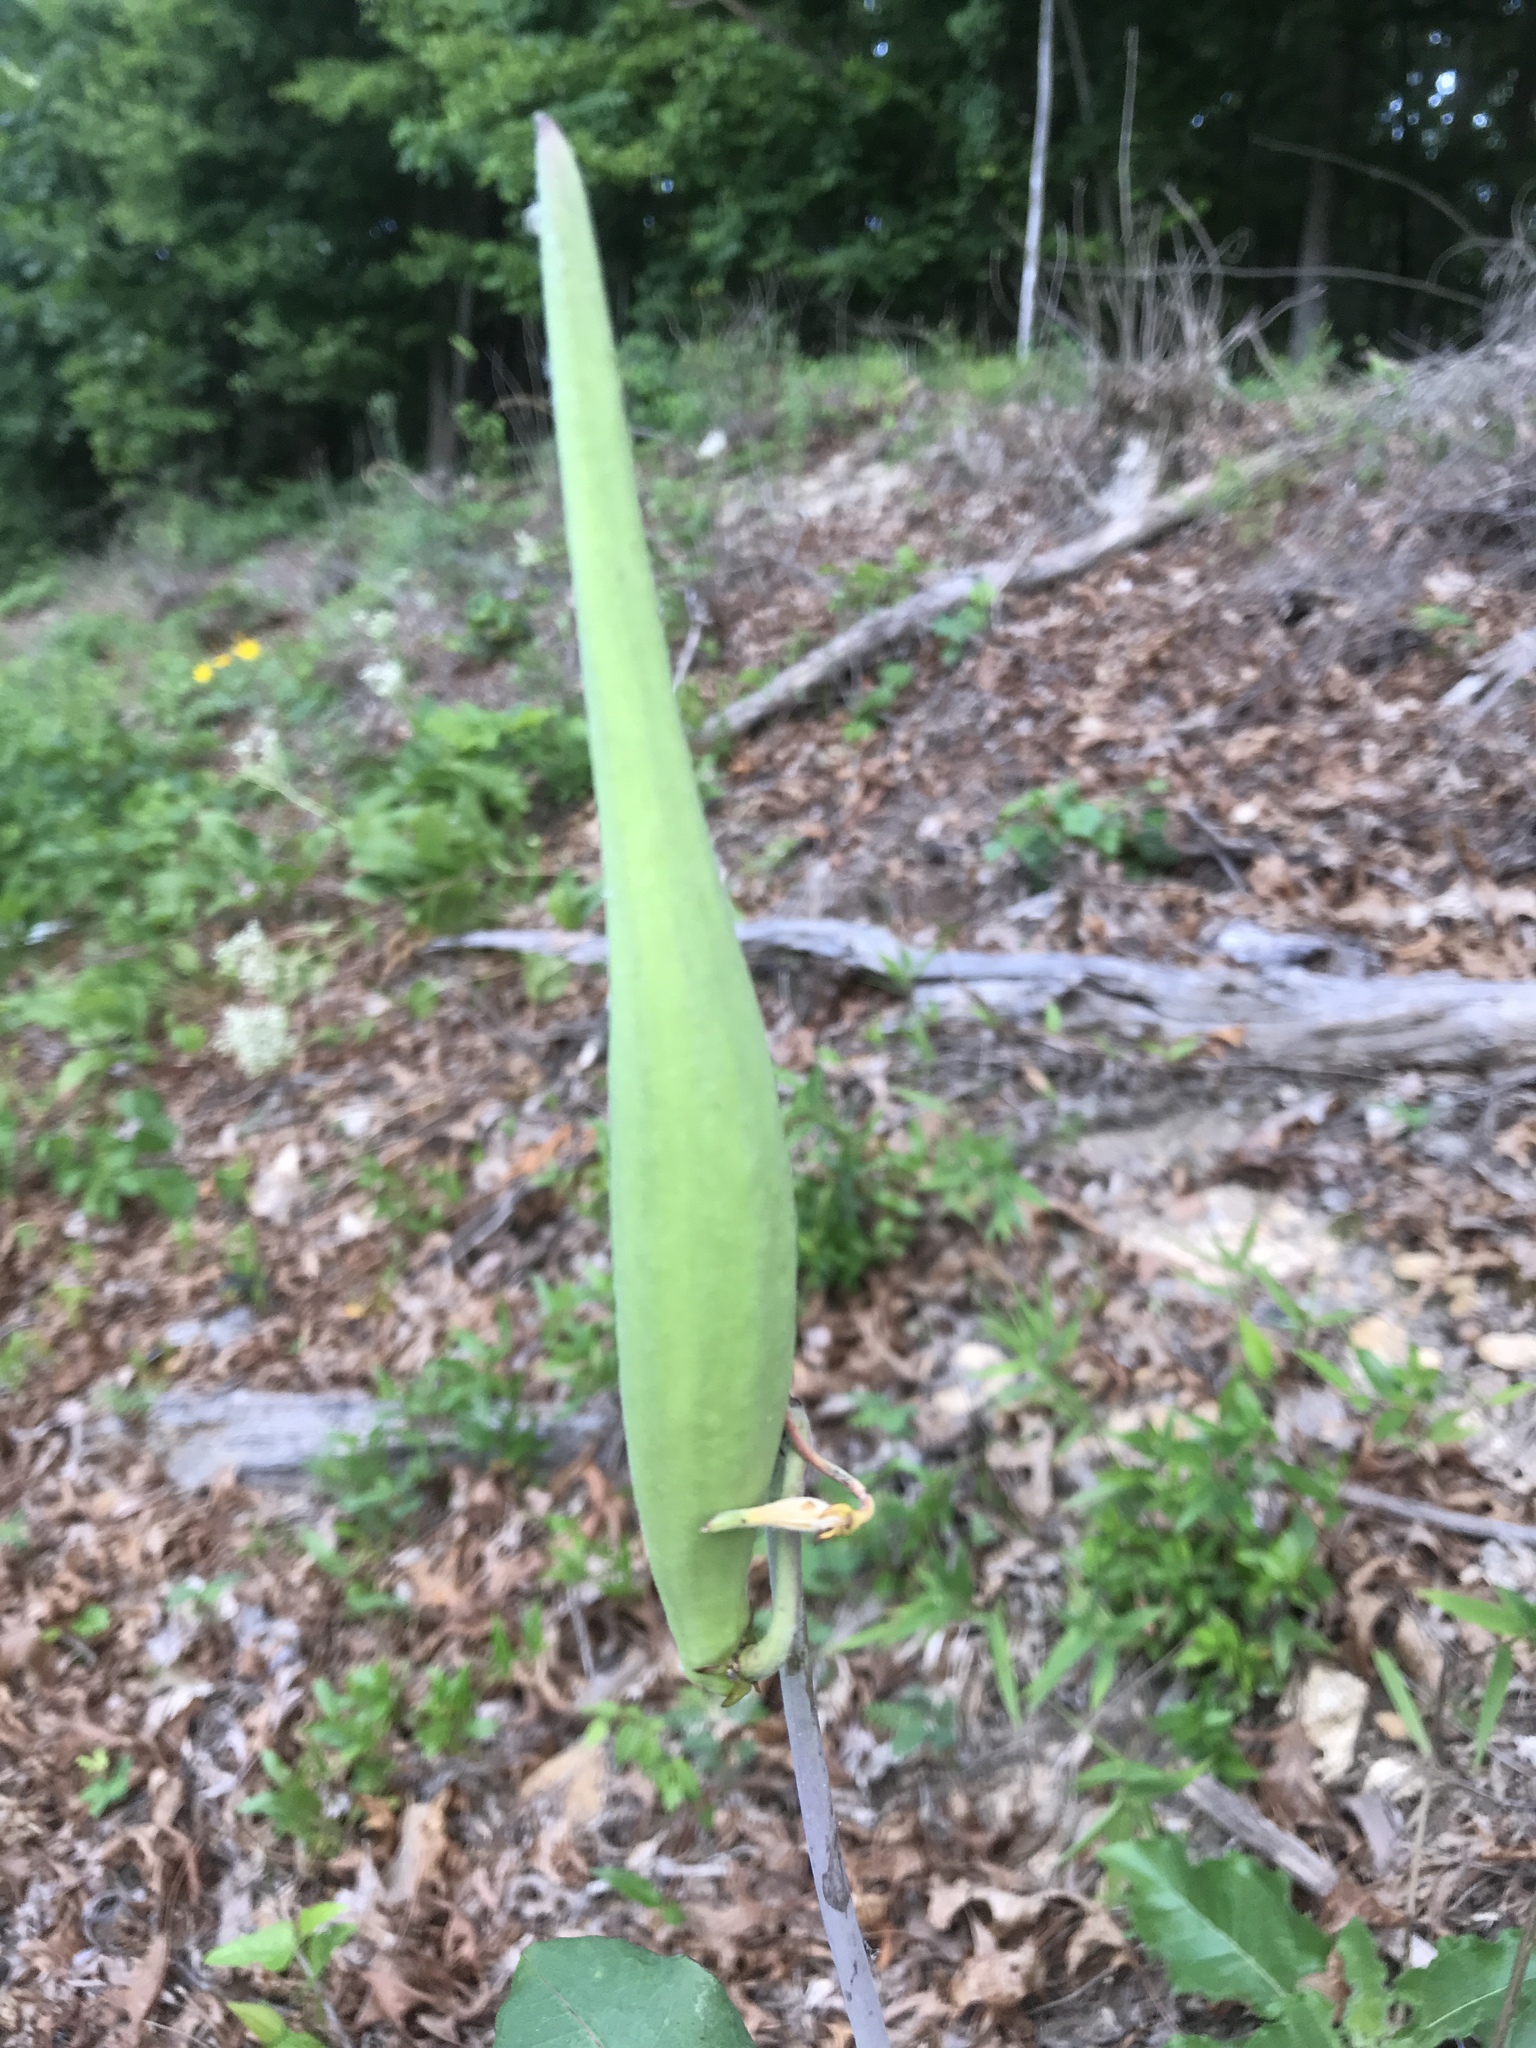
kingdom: Plantae
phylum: Tracheophyta
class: Magnoliopsida
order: Gentianales
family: Apocynaceae
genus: Asclepias
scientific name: Asclepias amplexicaulis
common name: Blunt-leaf milkweed
